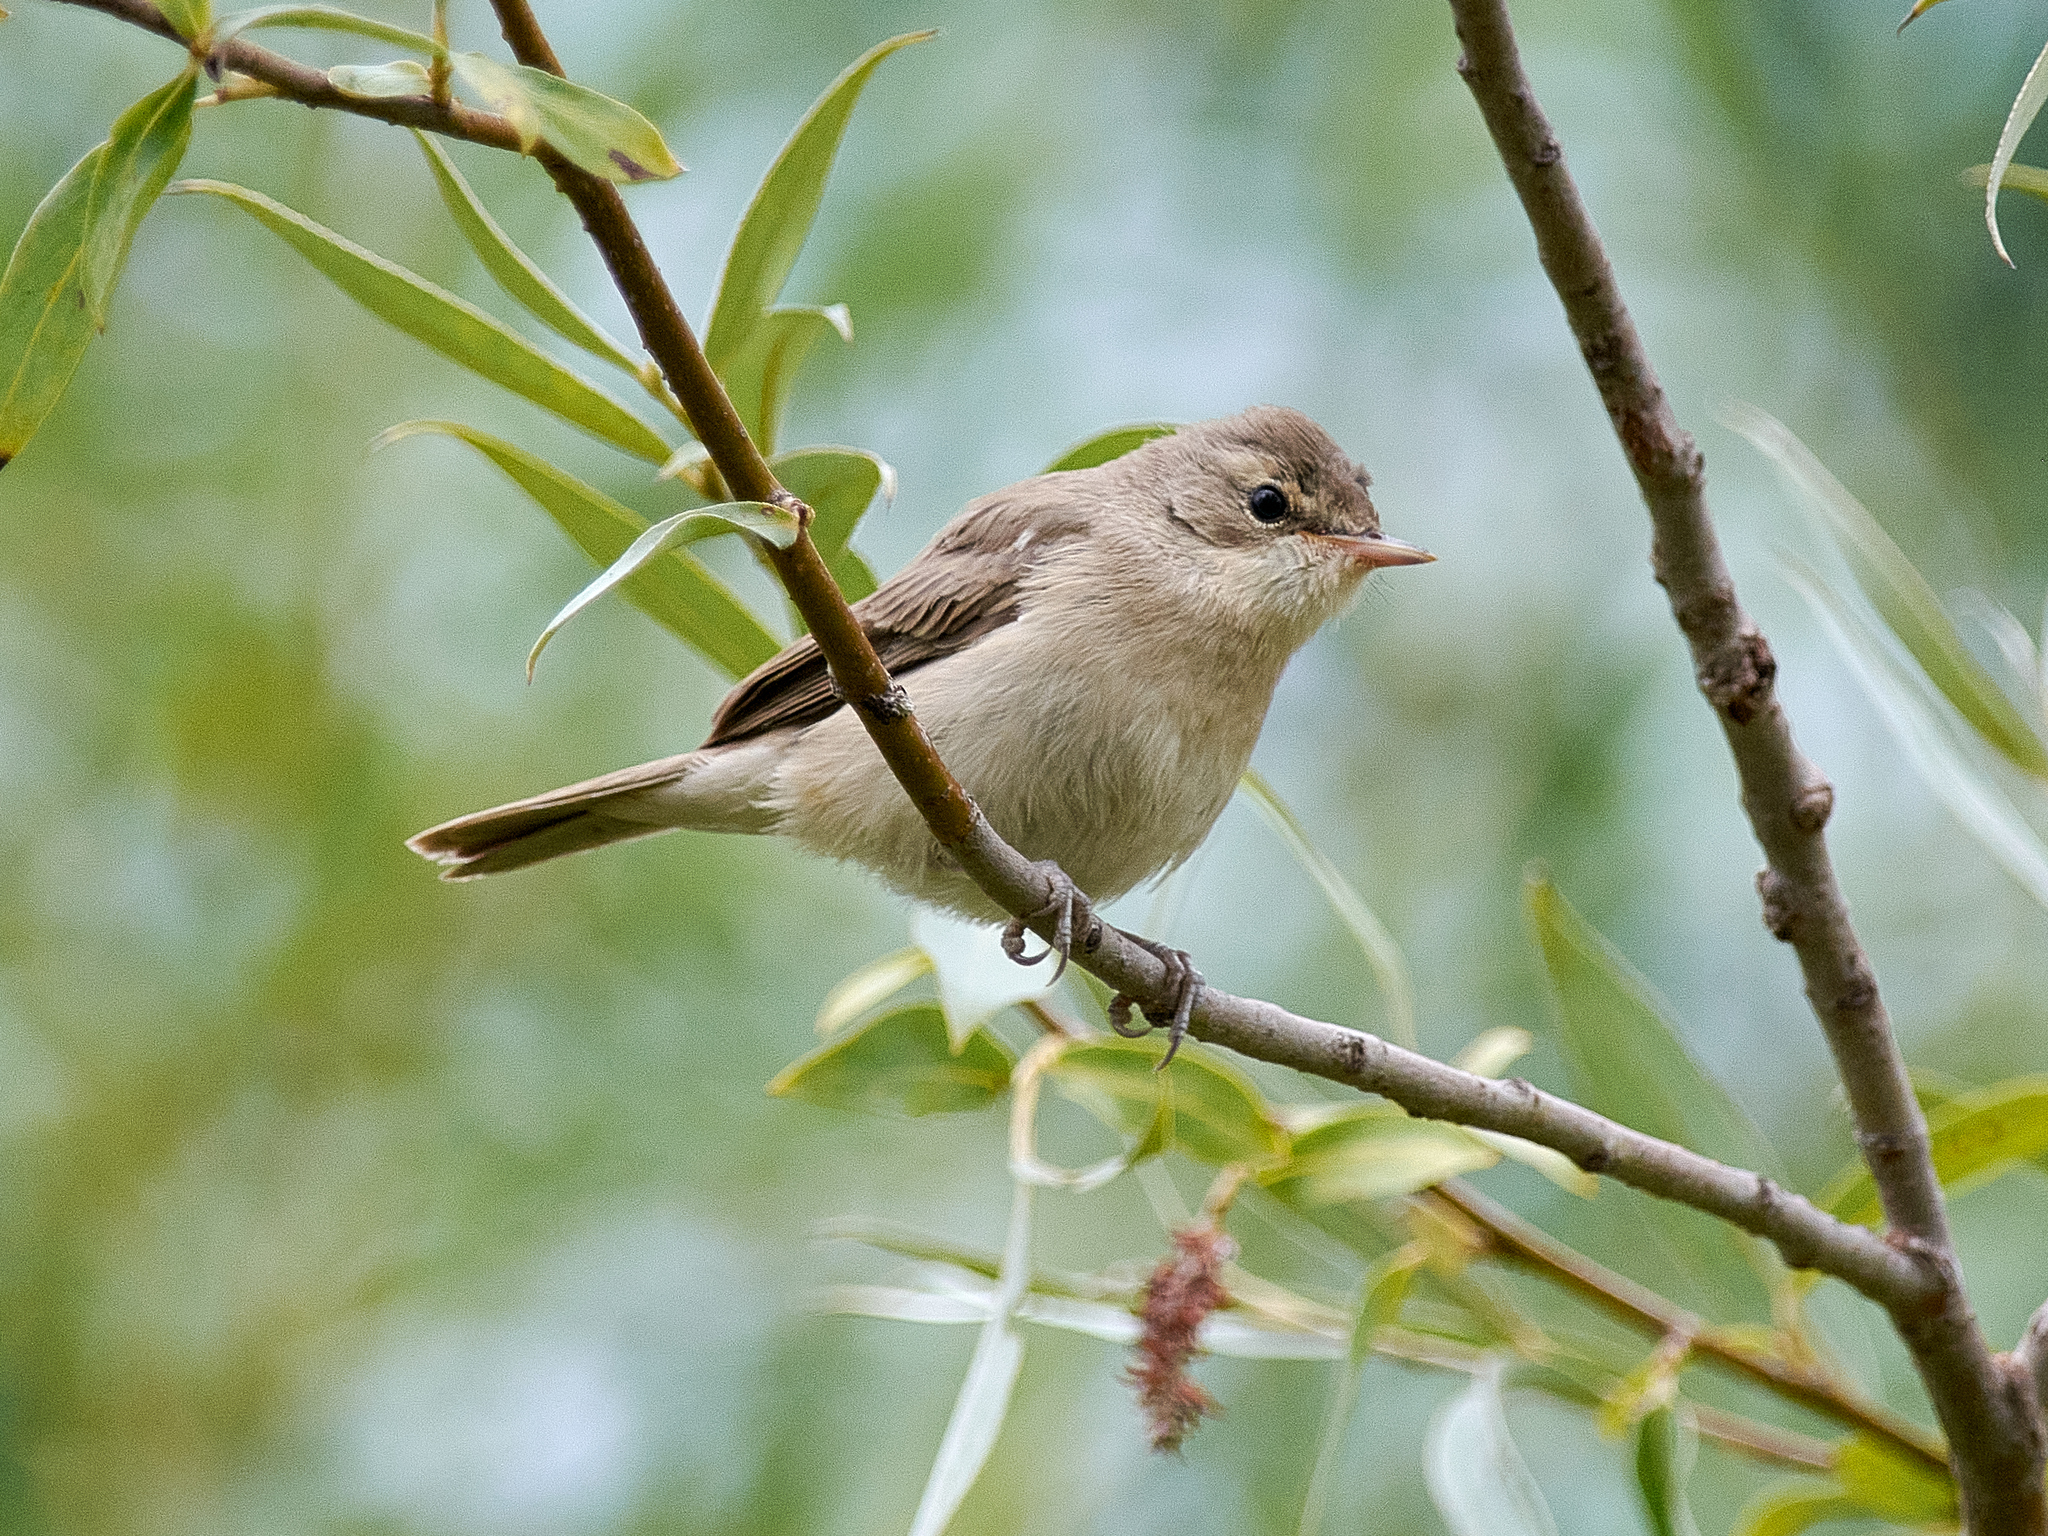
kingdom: Animalia
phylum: Chordata
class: Aves
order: Passeriformes
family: Acrocephalidae
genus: Iduna
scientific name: Iduna caligata
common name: Booted warbler
